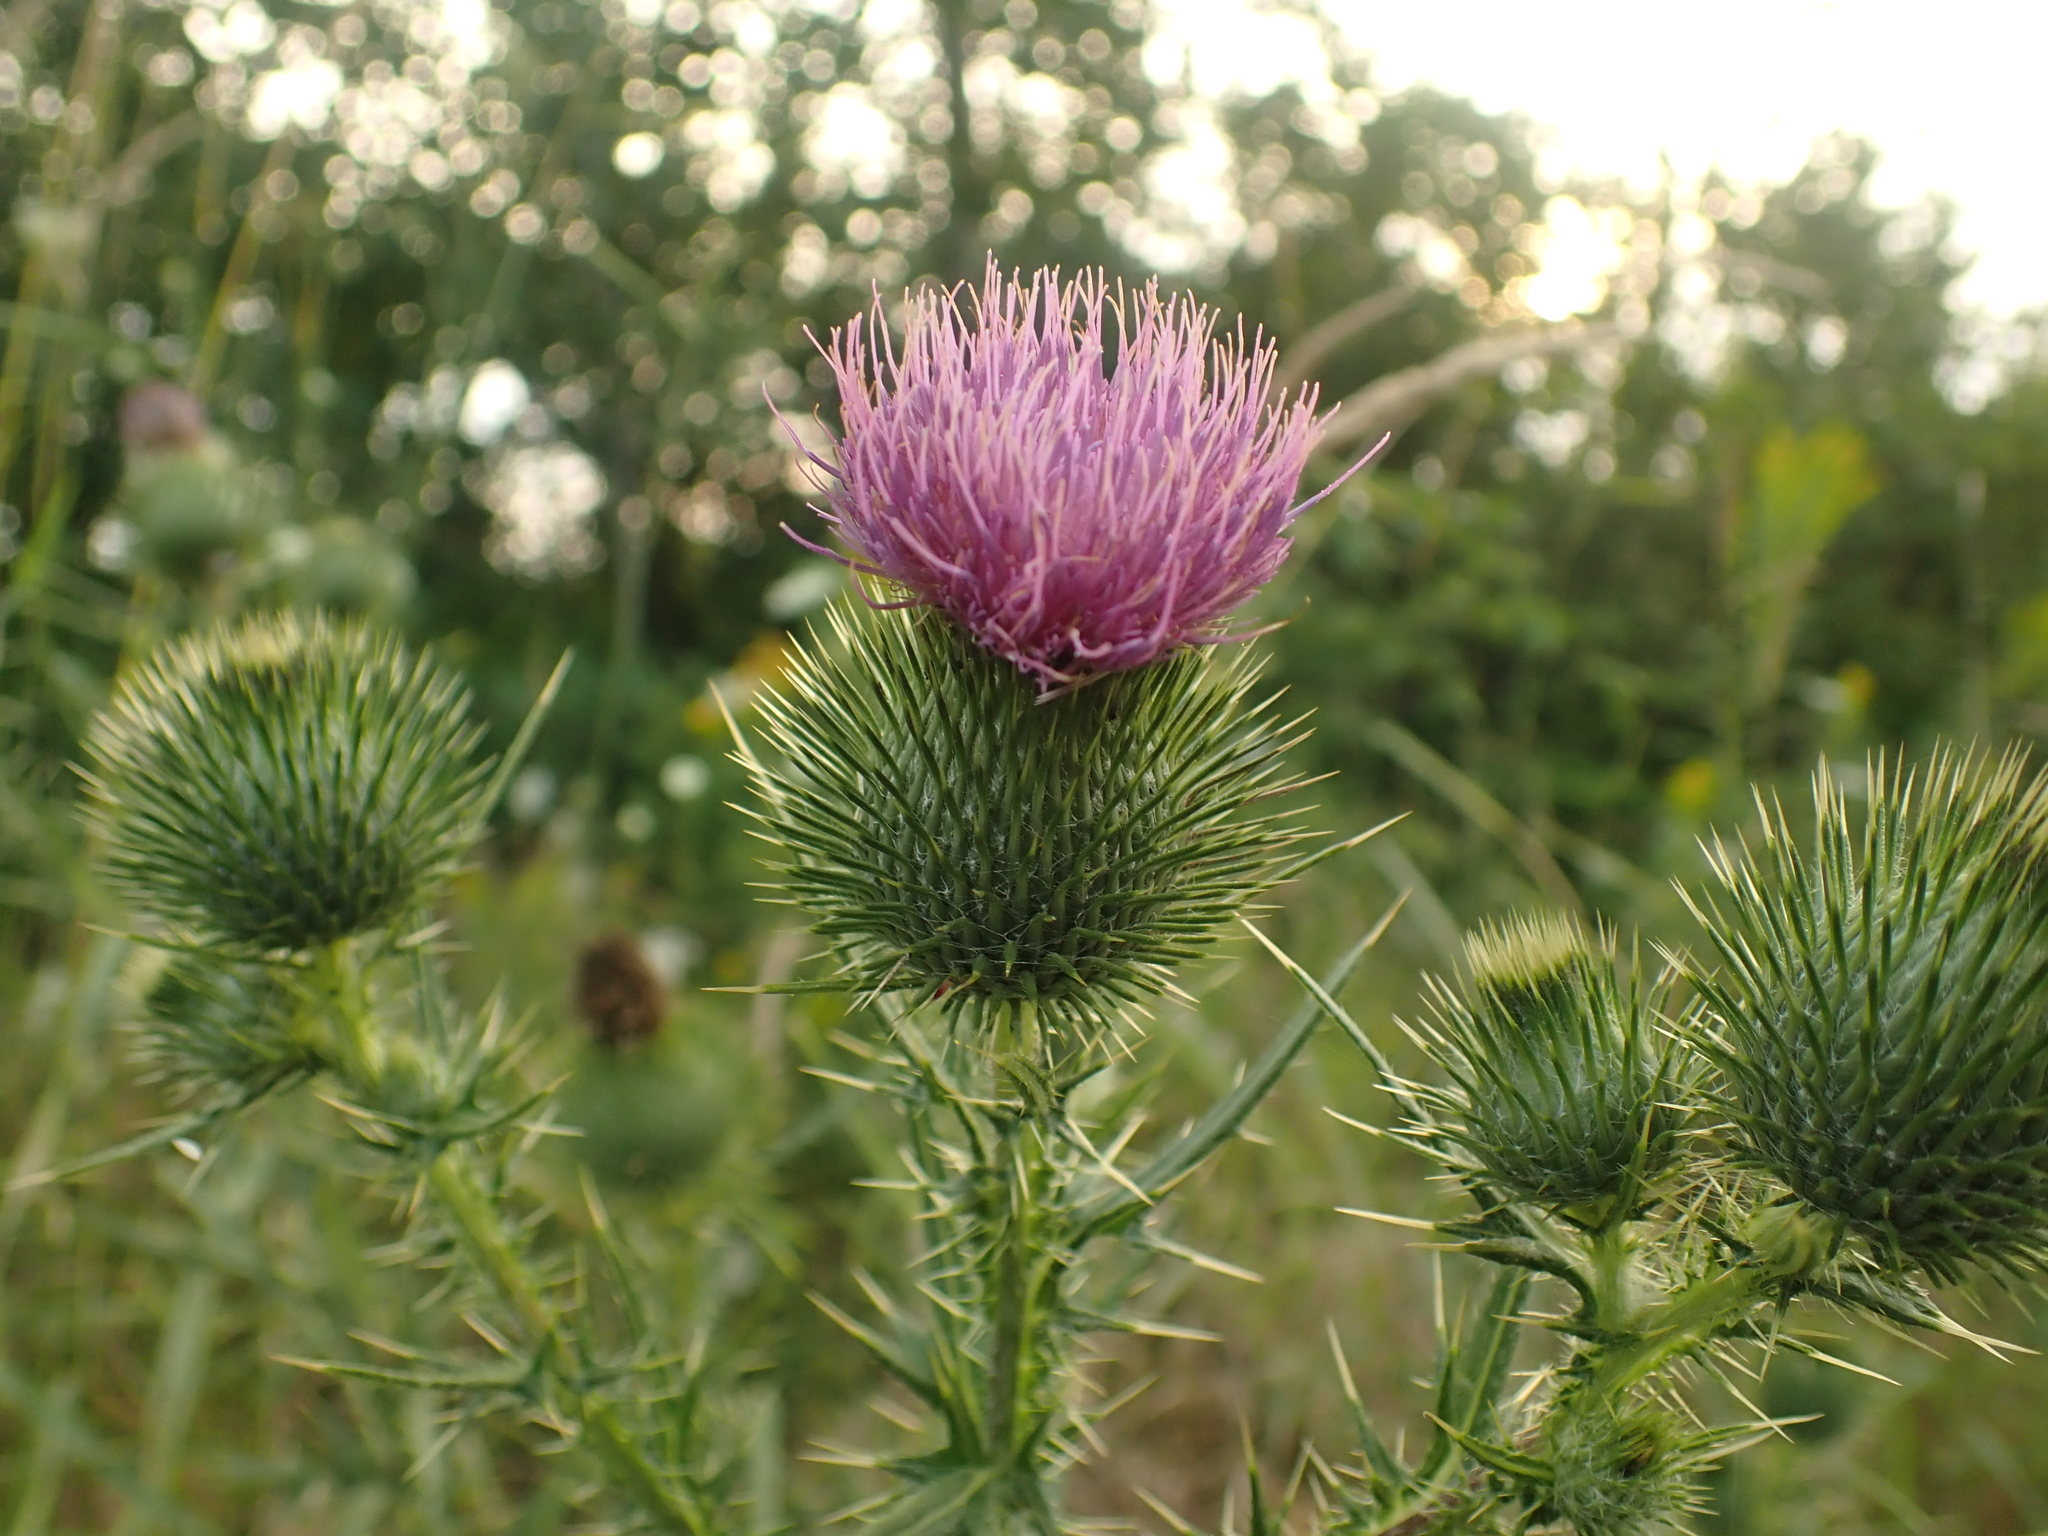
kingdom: Plantae
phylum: Tracheophyta
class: Magnoliopsida
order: Asterales
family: Asteraceae
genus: Cirsium
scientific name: Cirsium vulgare
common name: Bull thistle
